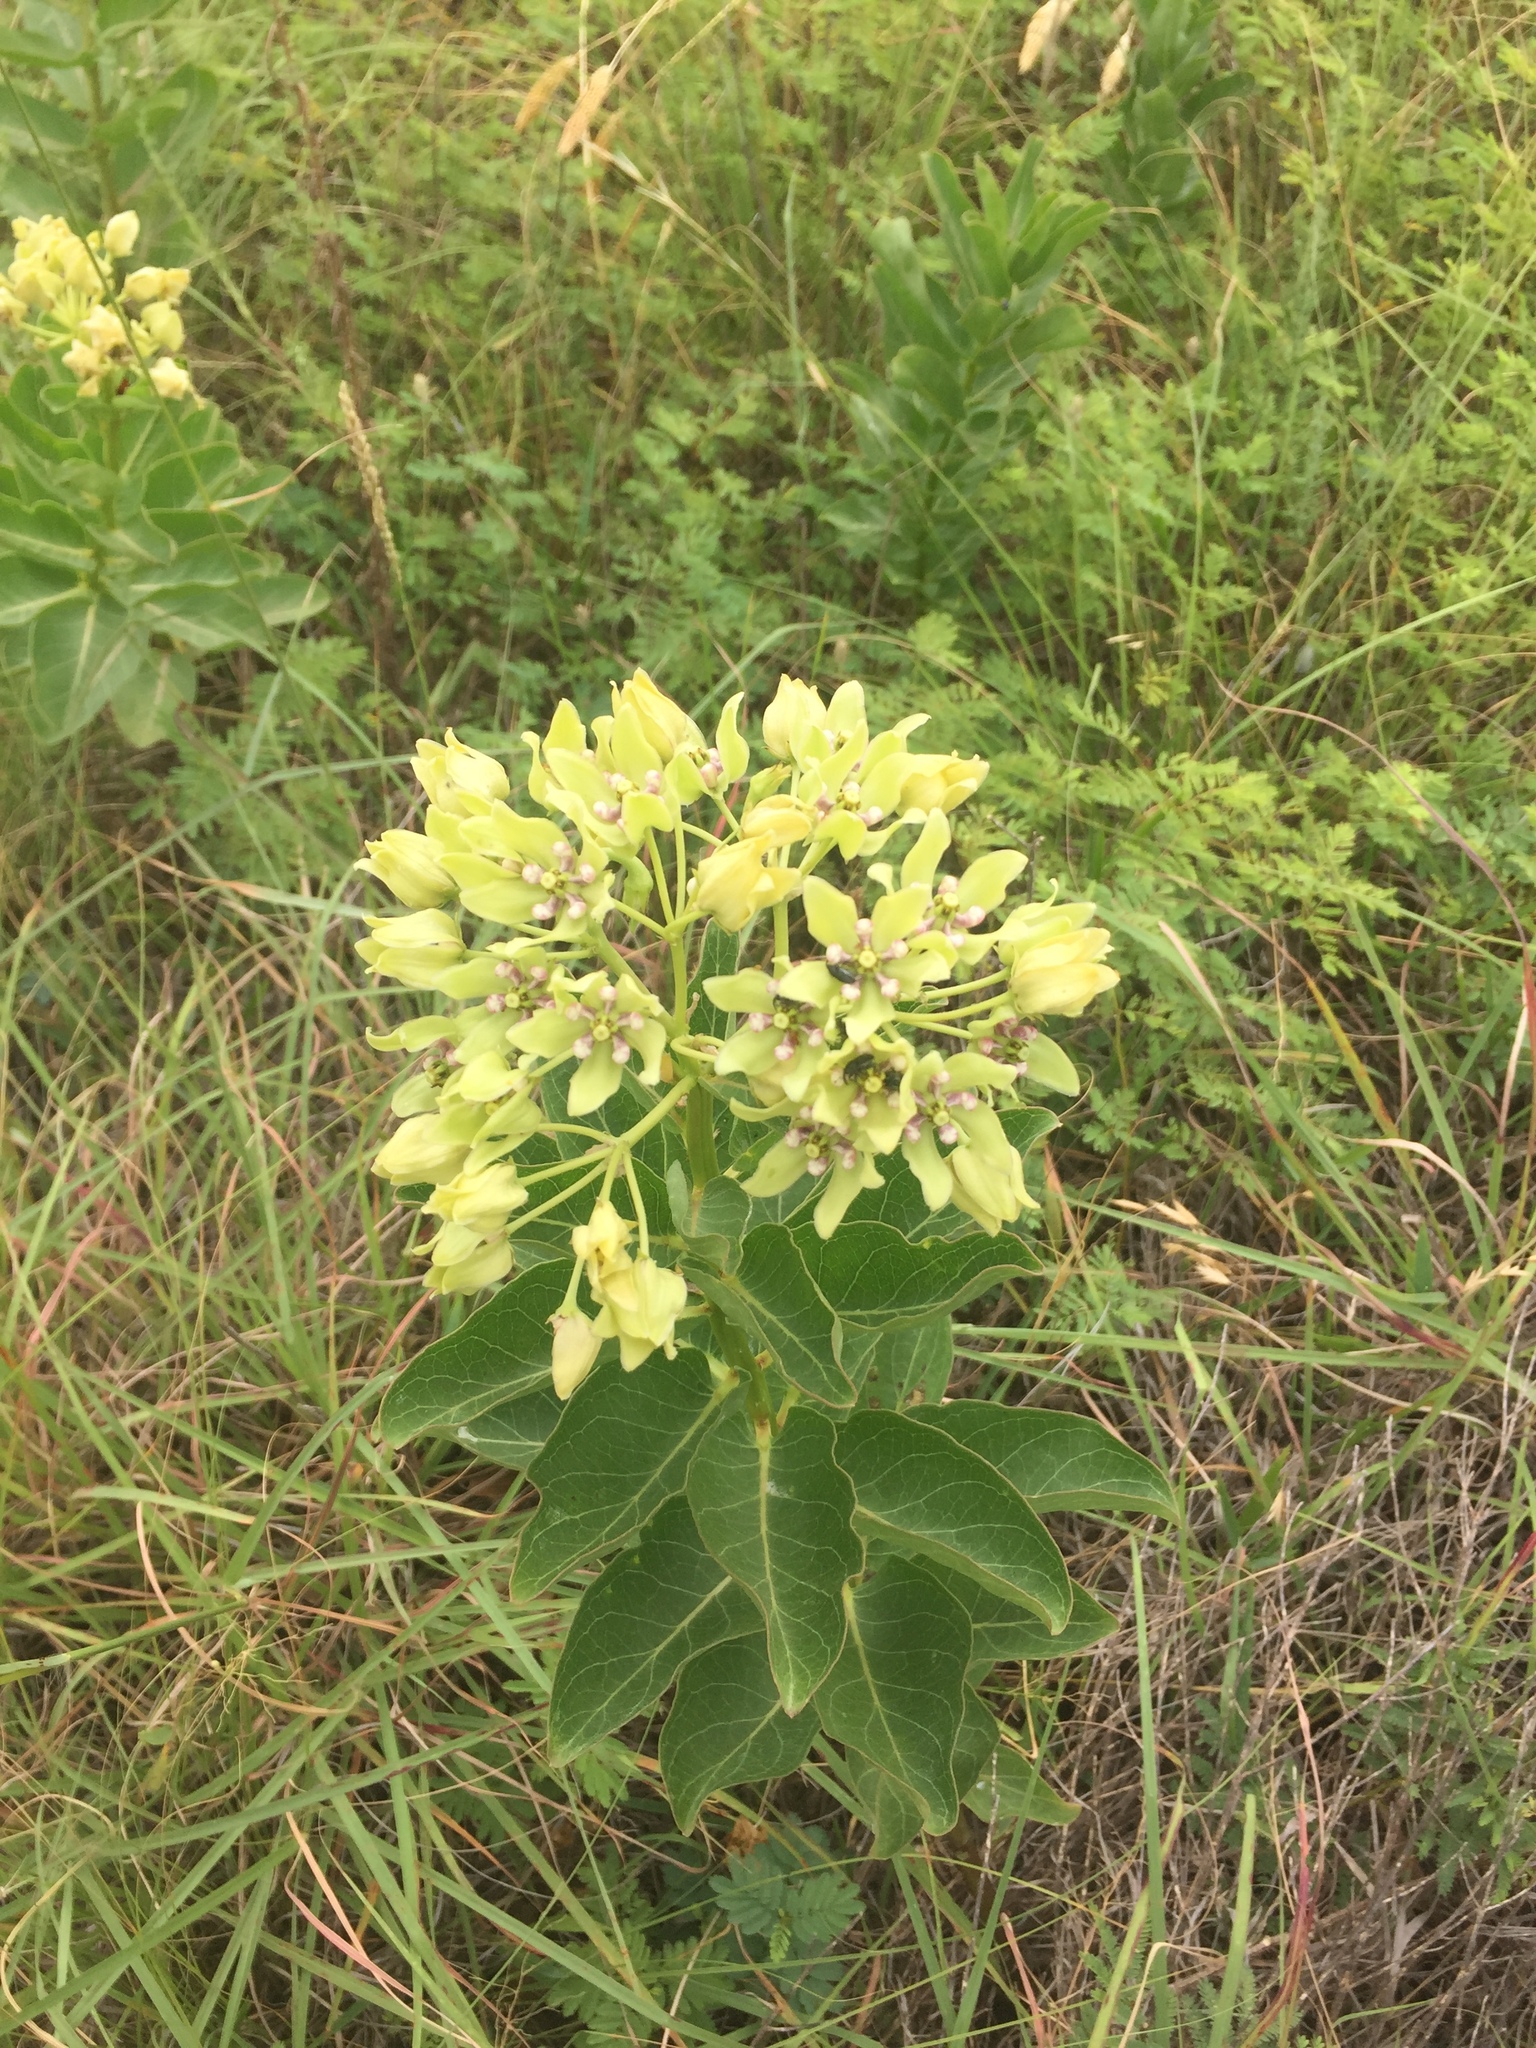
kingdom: Plantae
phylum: Tracheophyta
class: Magnoliopsida
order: Gentianales
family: Apocynaceae
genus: Asclepias
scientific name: Asclepias viridis
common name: Antelope-horns
